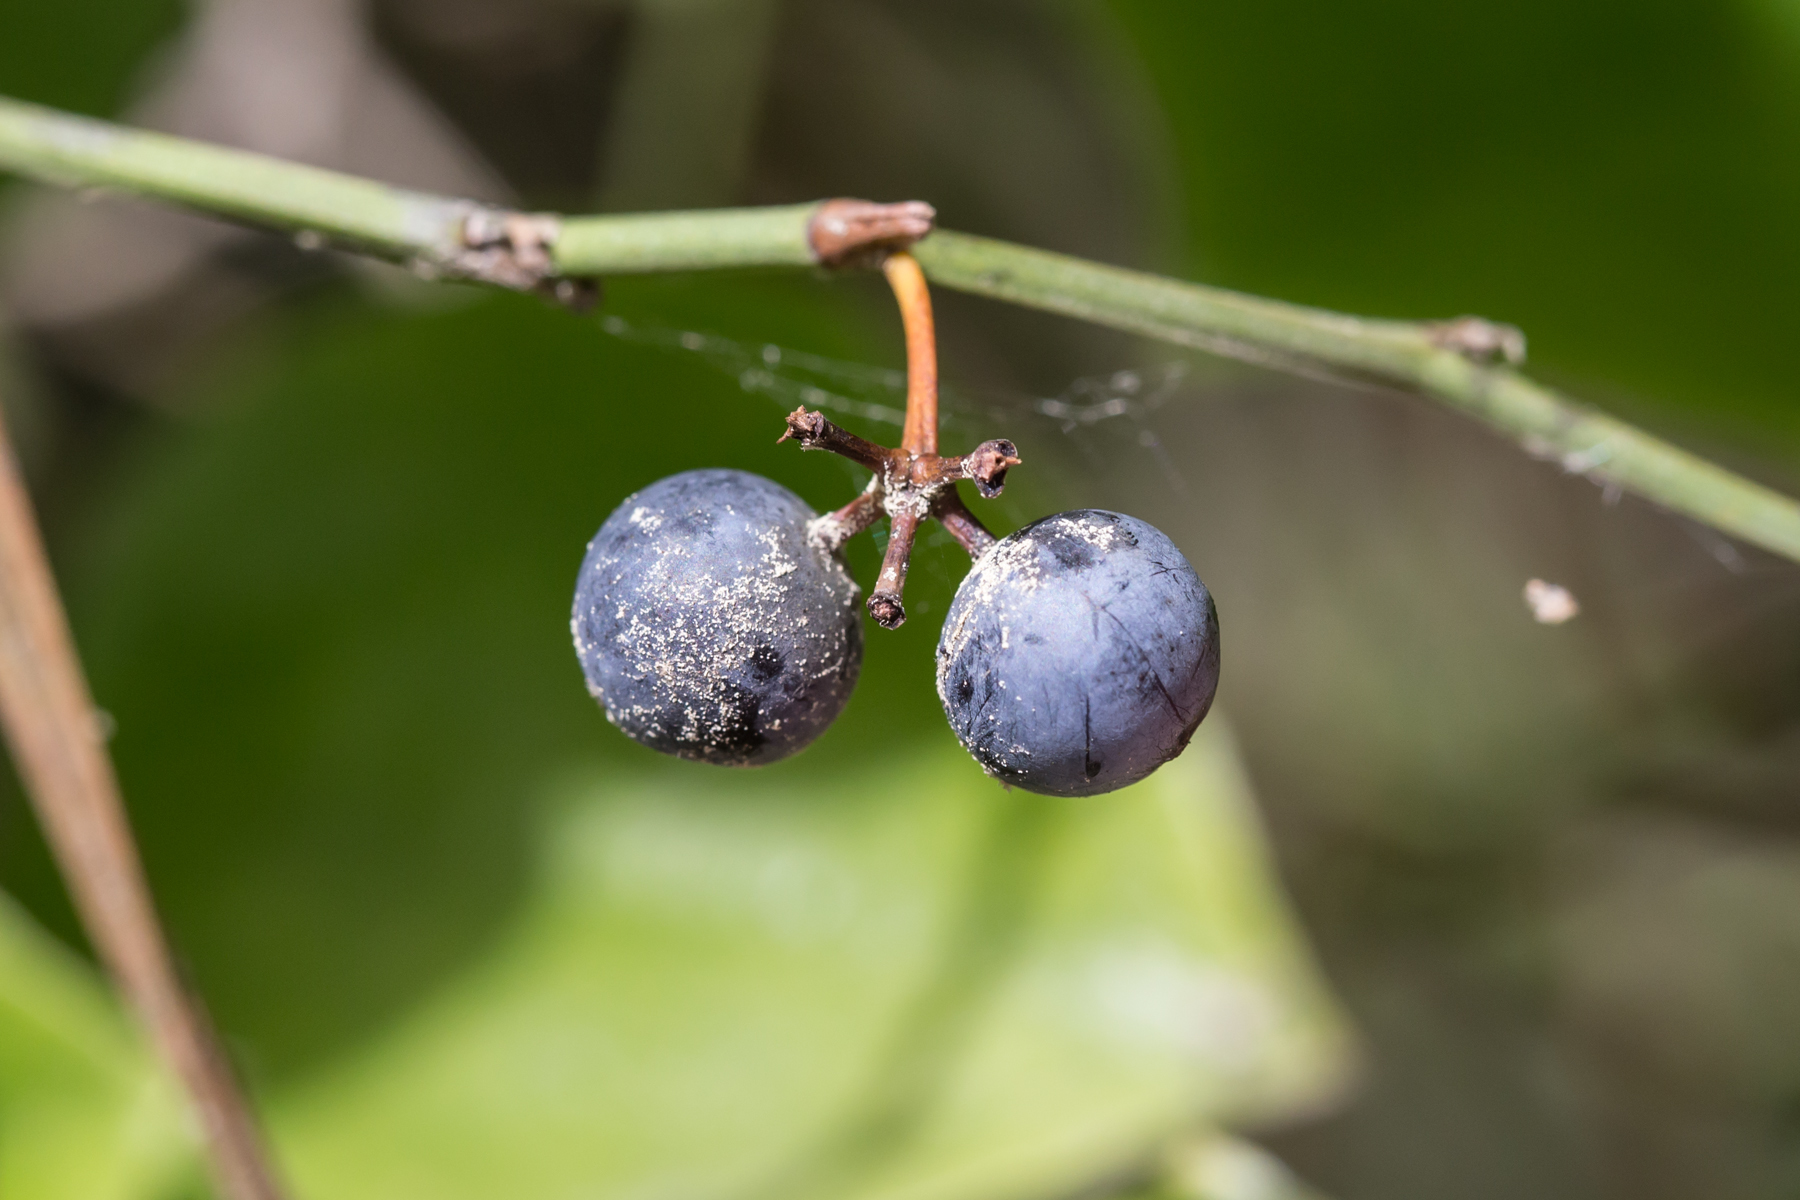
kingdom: Plantae
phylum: Tracheophyta
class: Liliopsida
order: Liliales
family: Smilacaceae
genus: Smilax
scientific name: Smilax rotundifolia
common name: Bullbriar
